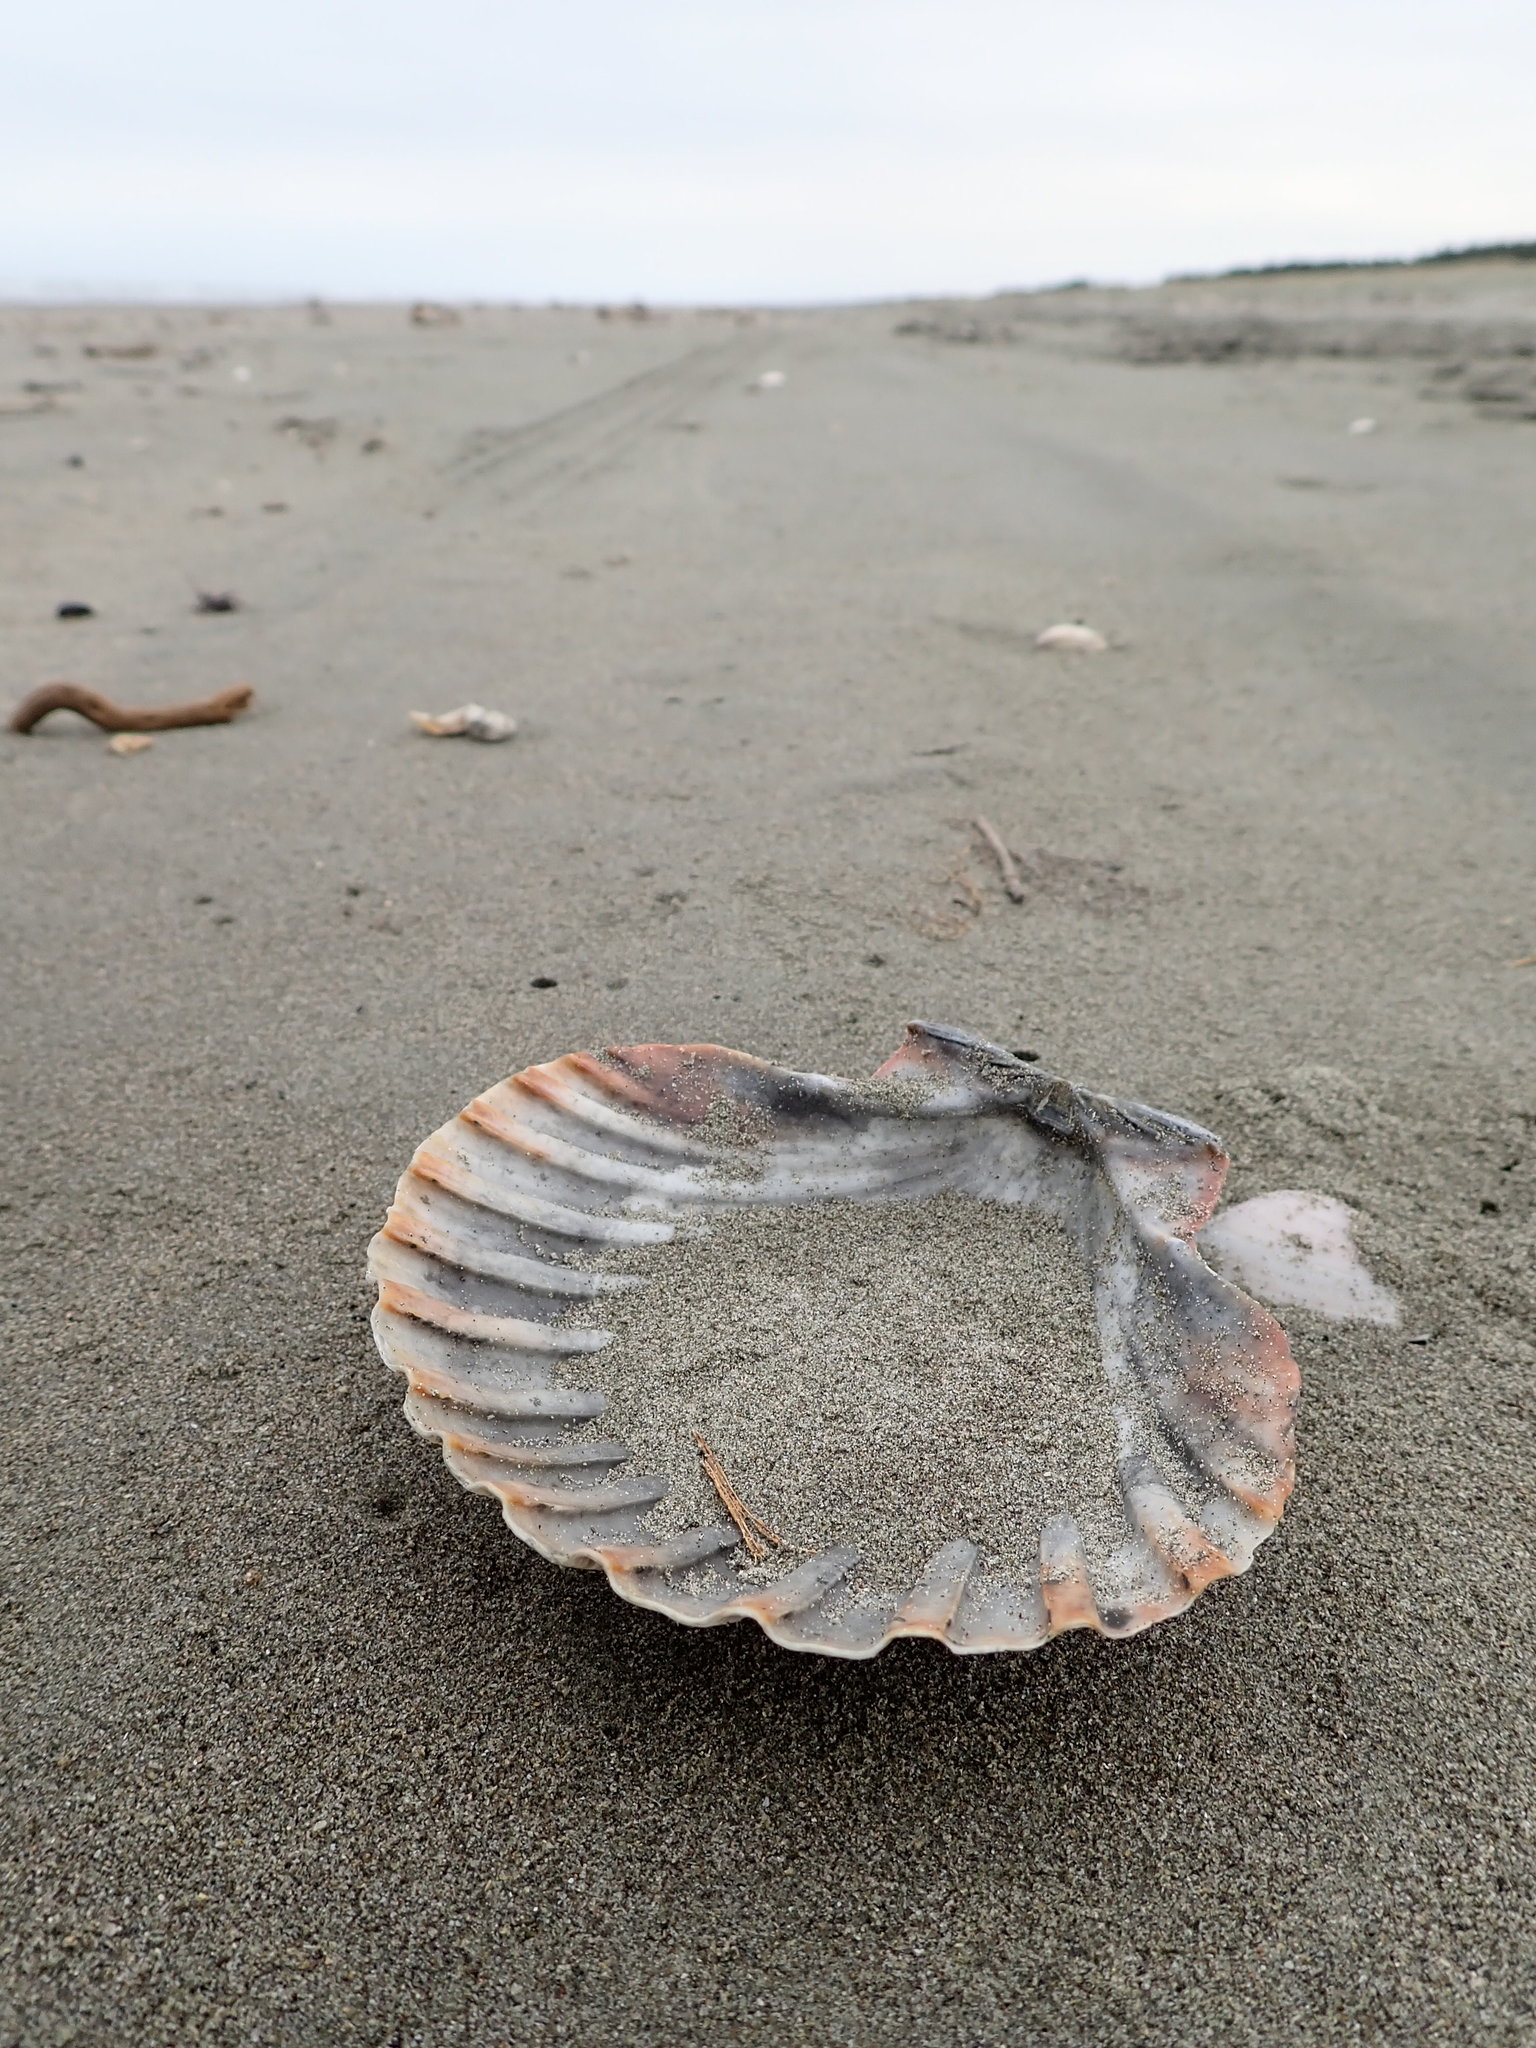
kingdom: Animalia
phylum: Mollusca
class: Bivalvia
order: Pectinida
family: Pectinidae
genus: Pecten
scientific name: Pecten novaezelandiae
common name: New zealand scallop
